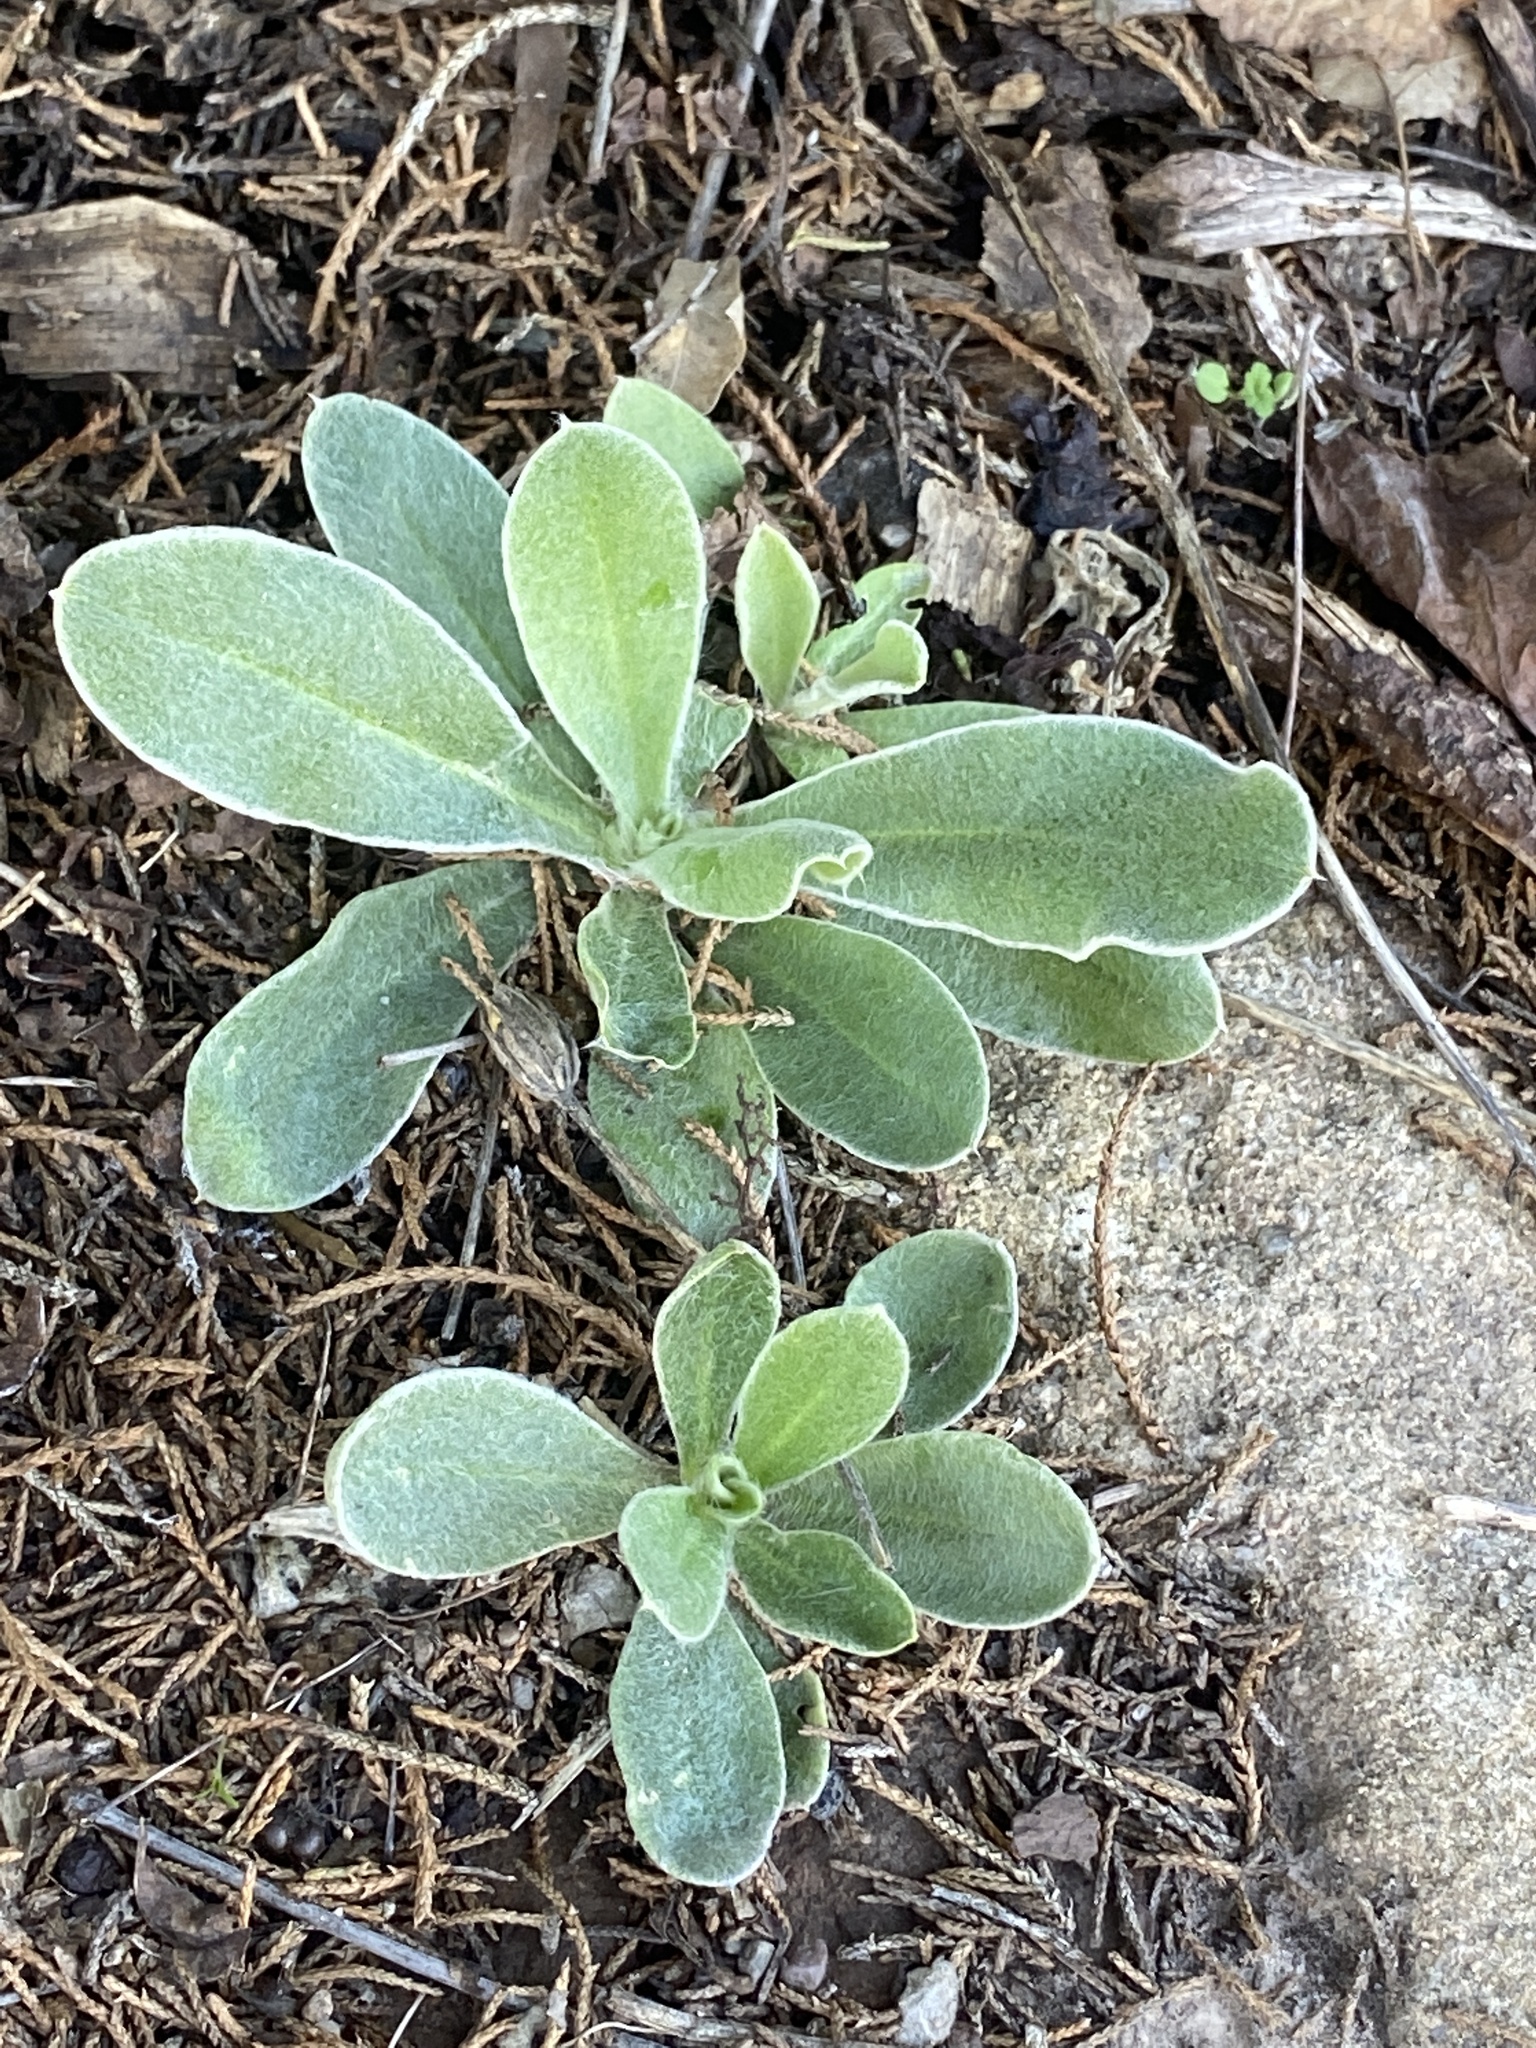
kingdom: Plantae
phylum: Tracheophyta
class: Magnoliopsida
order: Caryophyllales
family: Caryophyllaceae
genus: Silene
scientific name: Silene coronaria
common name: Rose campion
